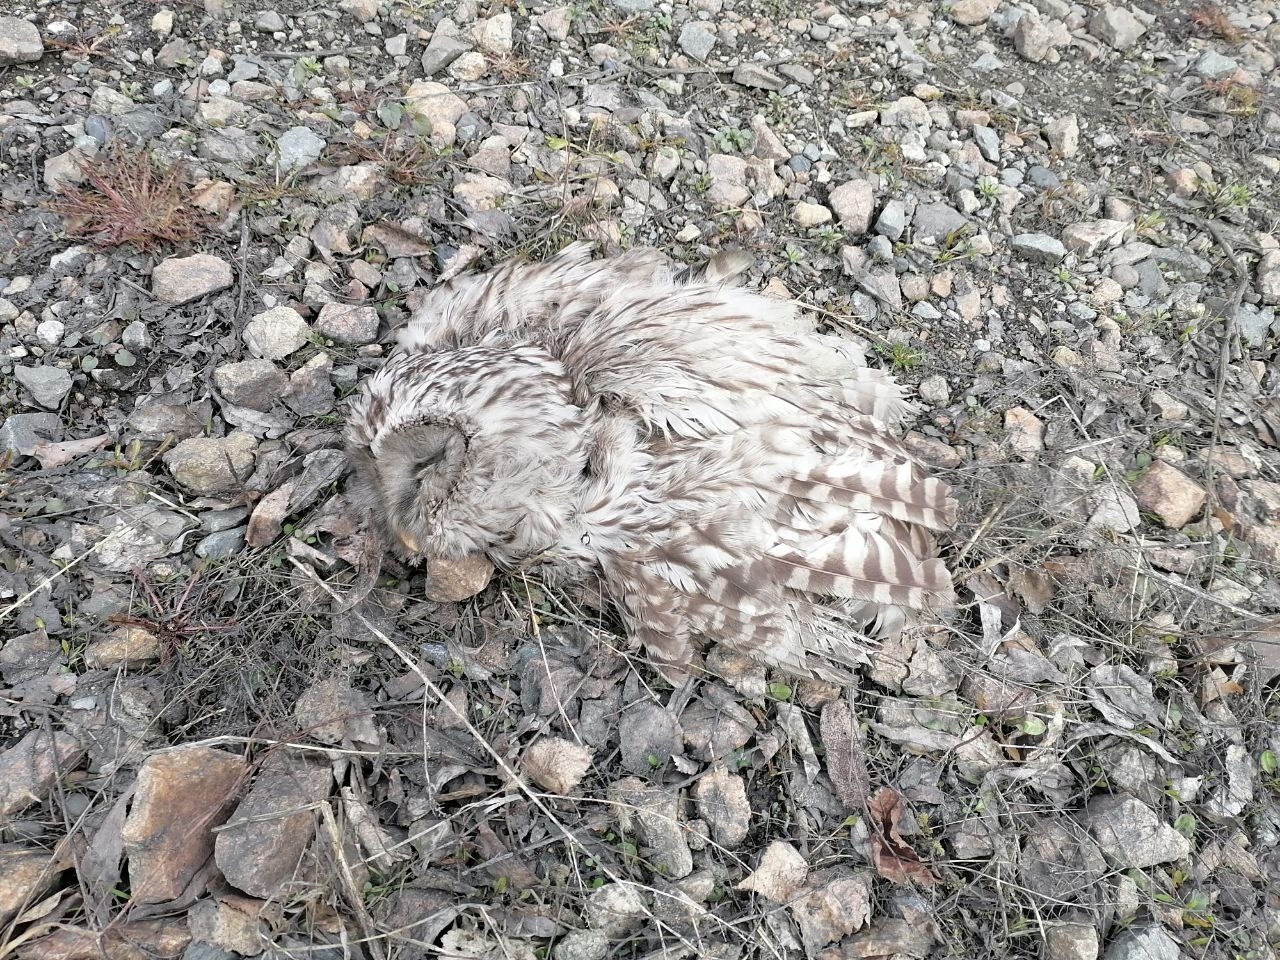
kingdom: Animalia
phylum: Chordata
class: Aves
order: Strigiformes
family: Strigidae
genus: Strix
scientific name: Strix uralensis
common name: Ural owl
